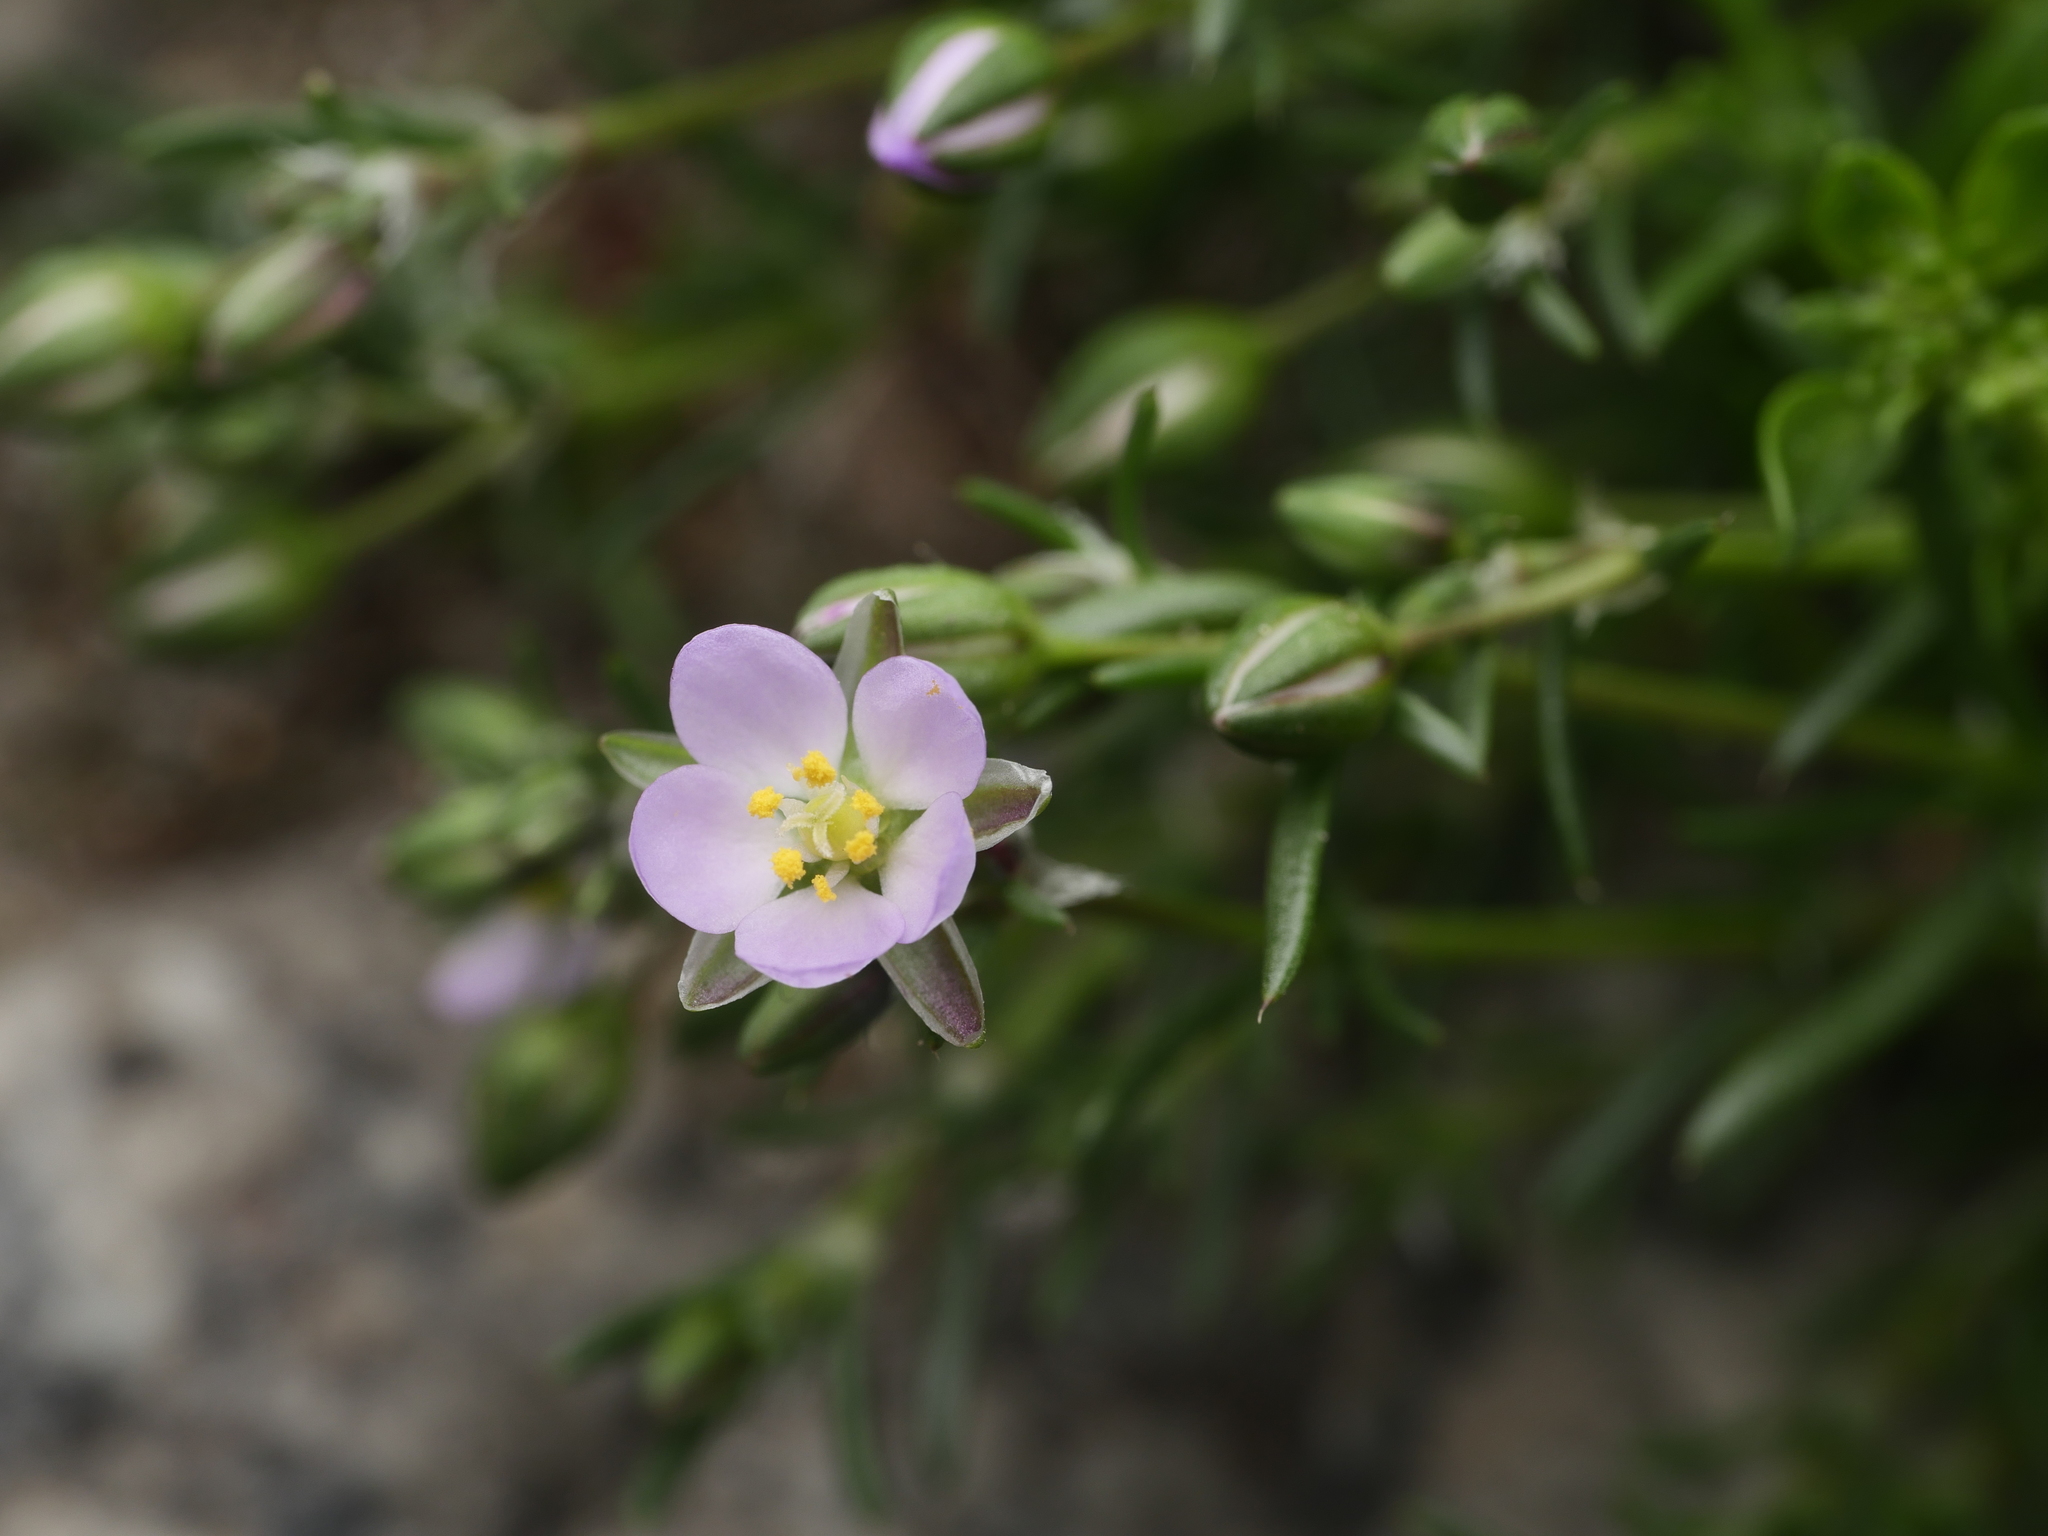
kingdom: Plantae
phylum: Tracheophyta
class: Magnoliopsida
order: Caryophyllales
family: Caryophyllaceae
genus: Spergularia
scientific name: Spergularia rubra
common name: Red sand-spurrey
